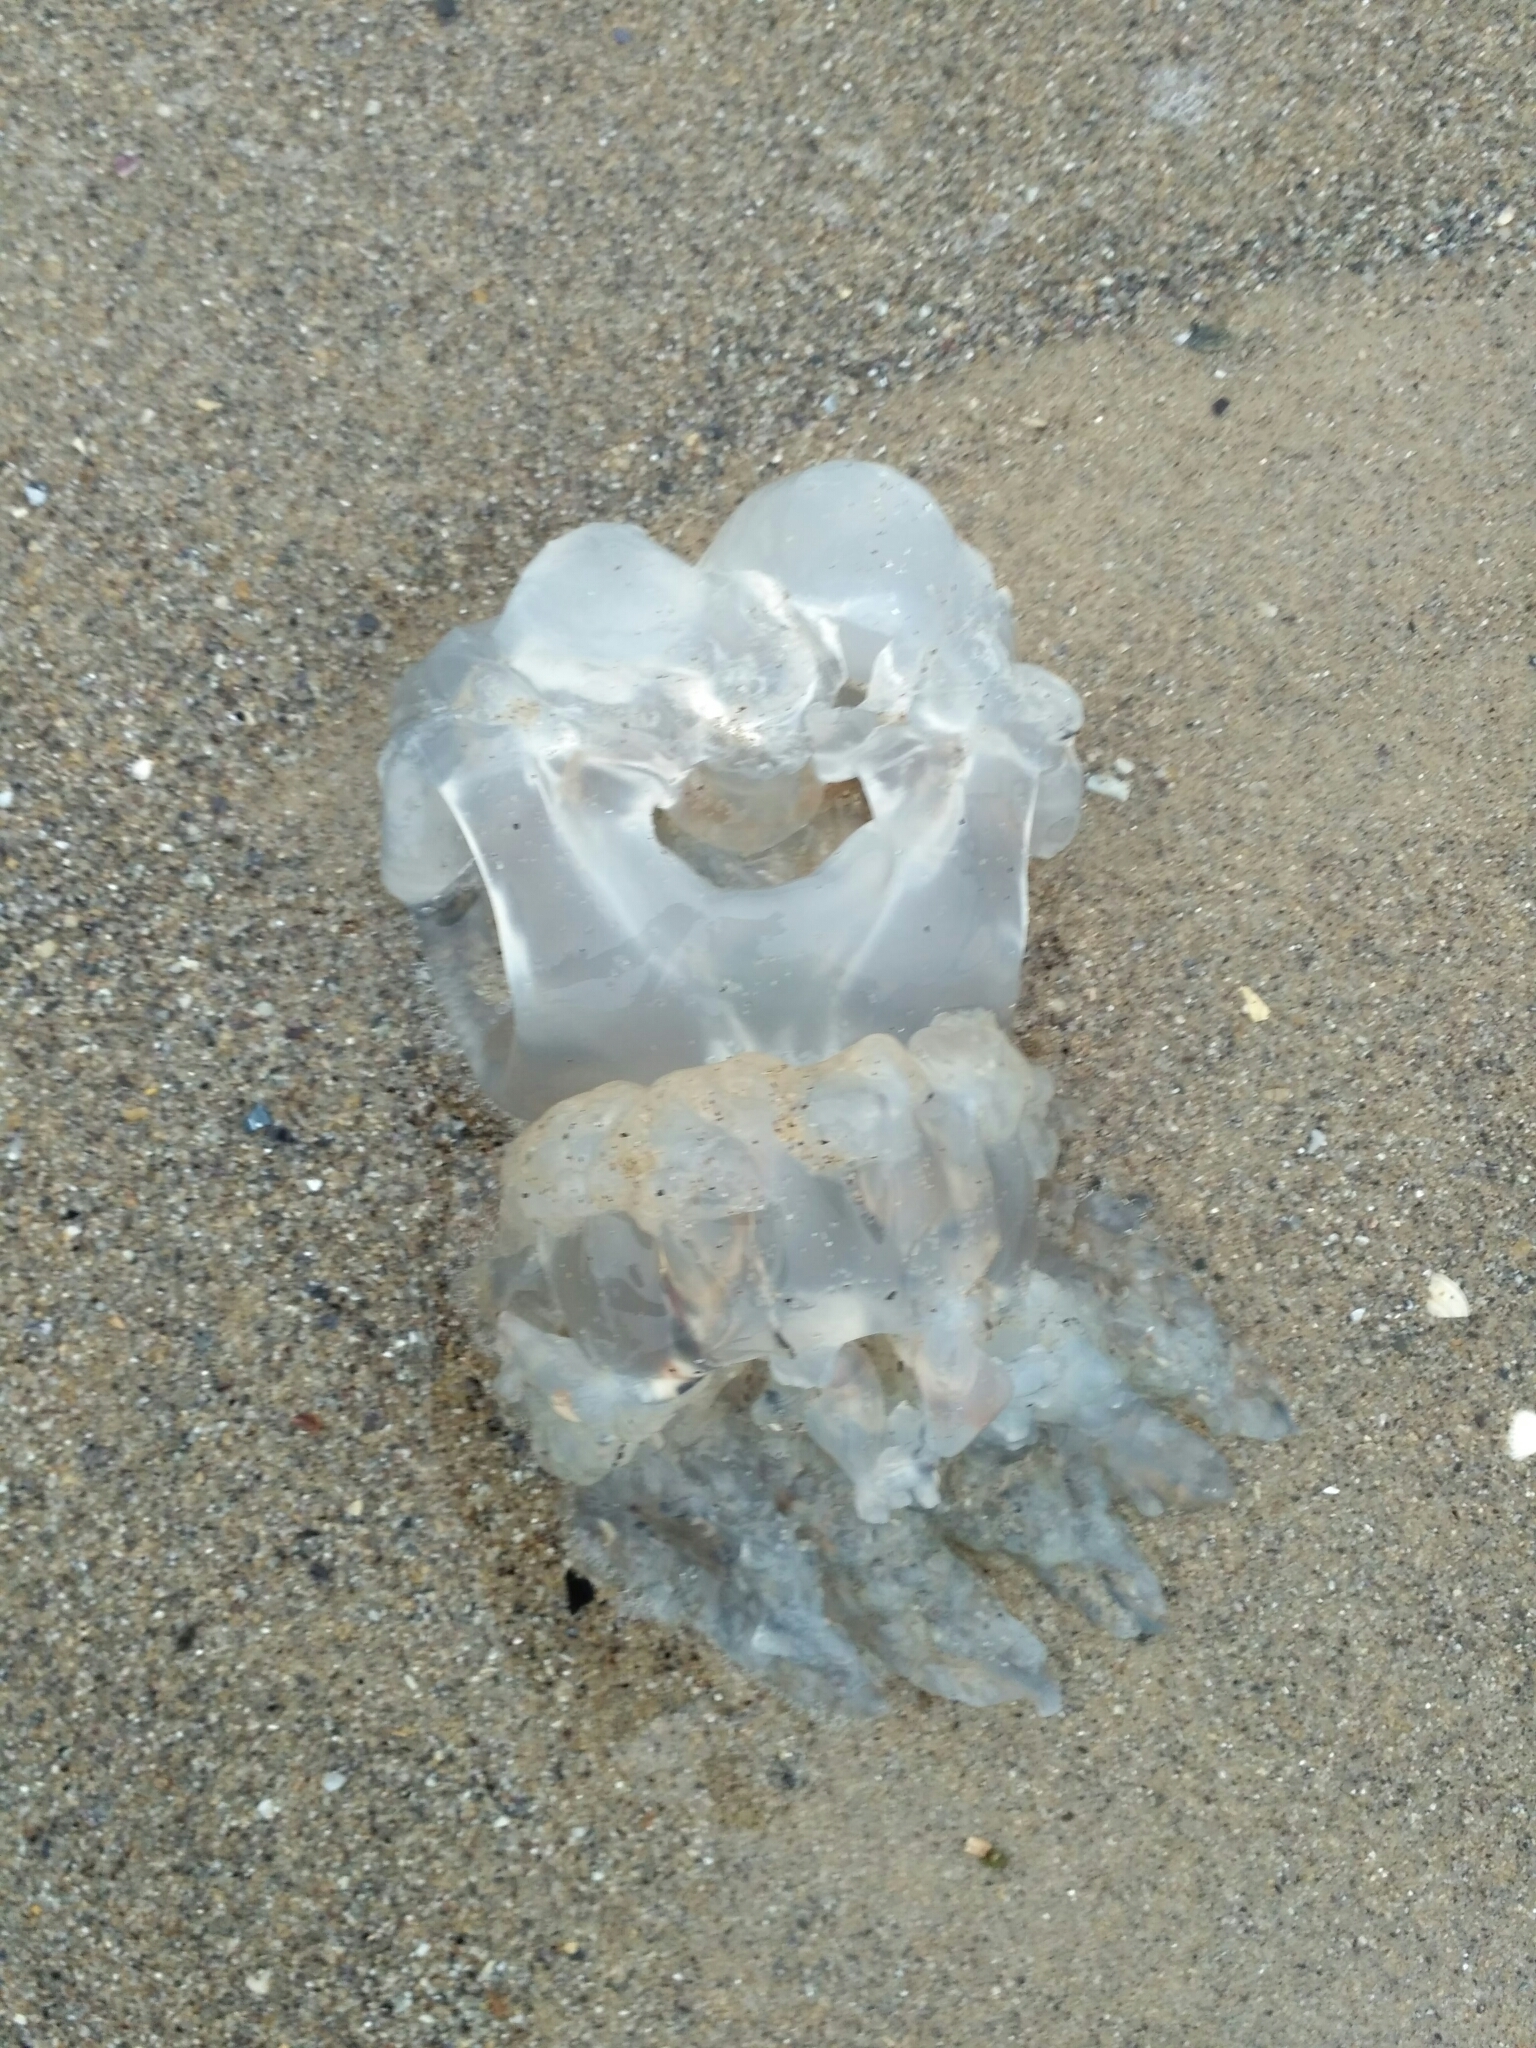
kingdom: Animalia
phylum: Cnidaria
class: Scyphozoa
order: Rhizostomeae
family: Rhizostomatidae
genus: Rhizostoma
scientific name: Rhizostoma pulmo
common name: Barrel jellyfish
